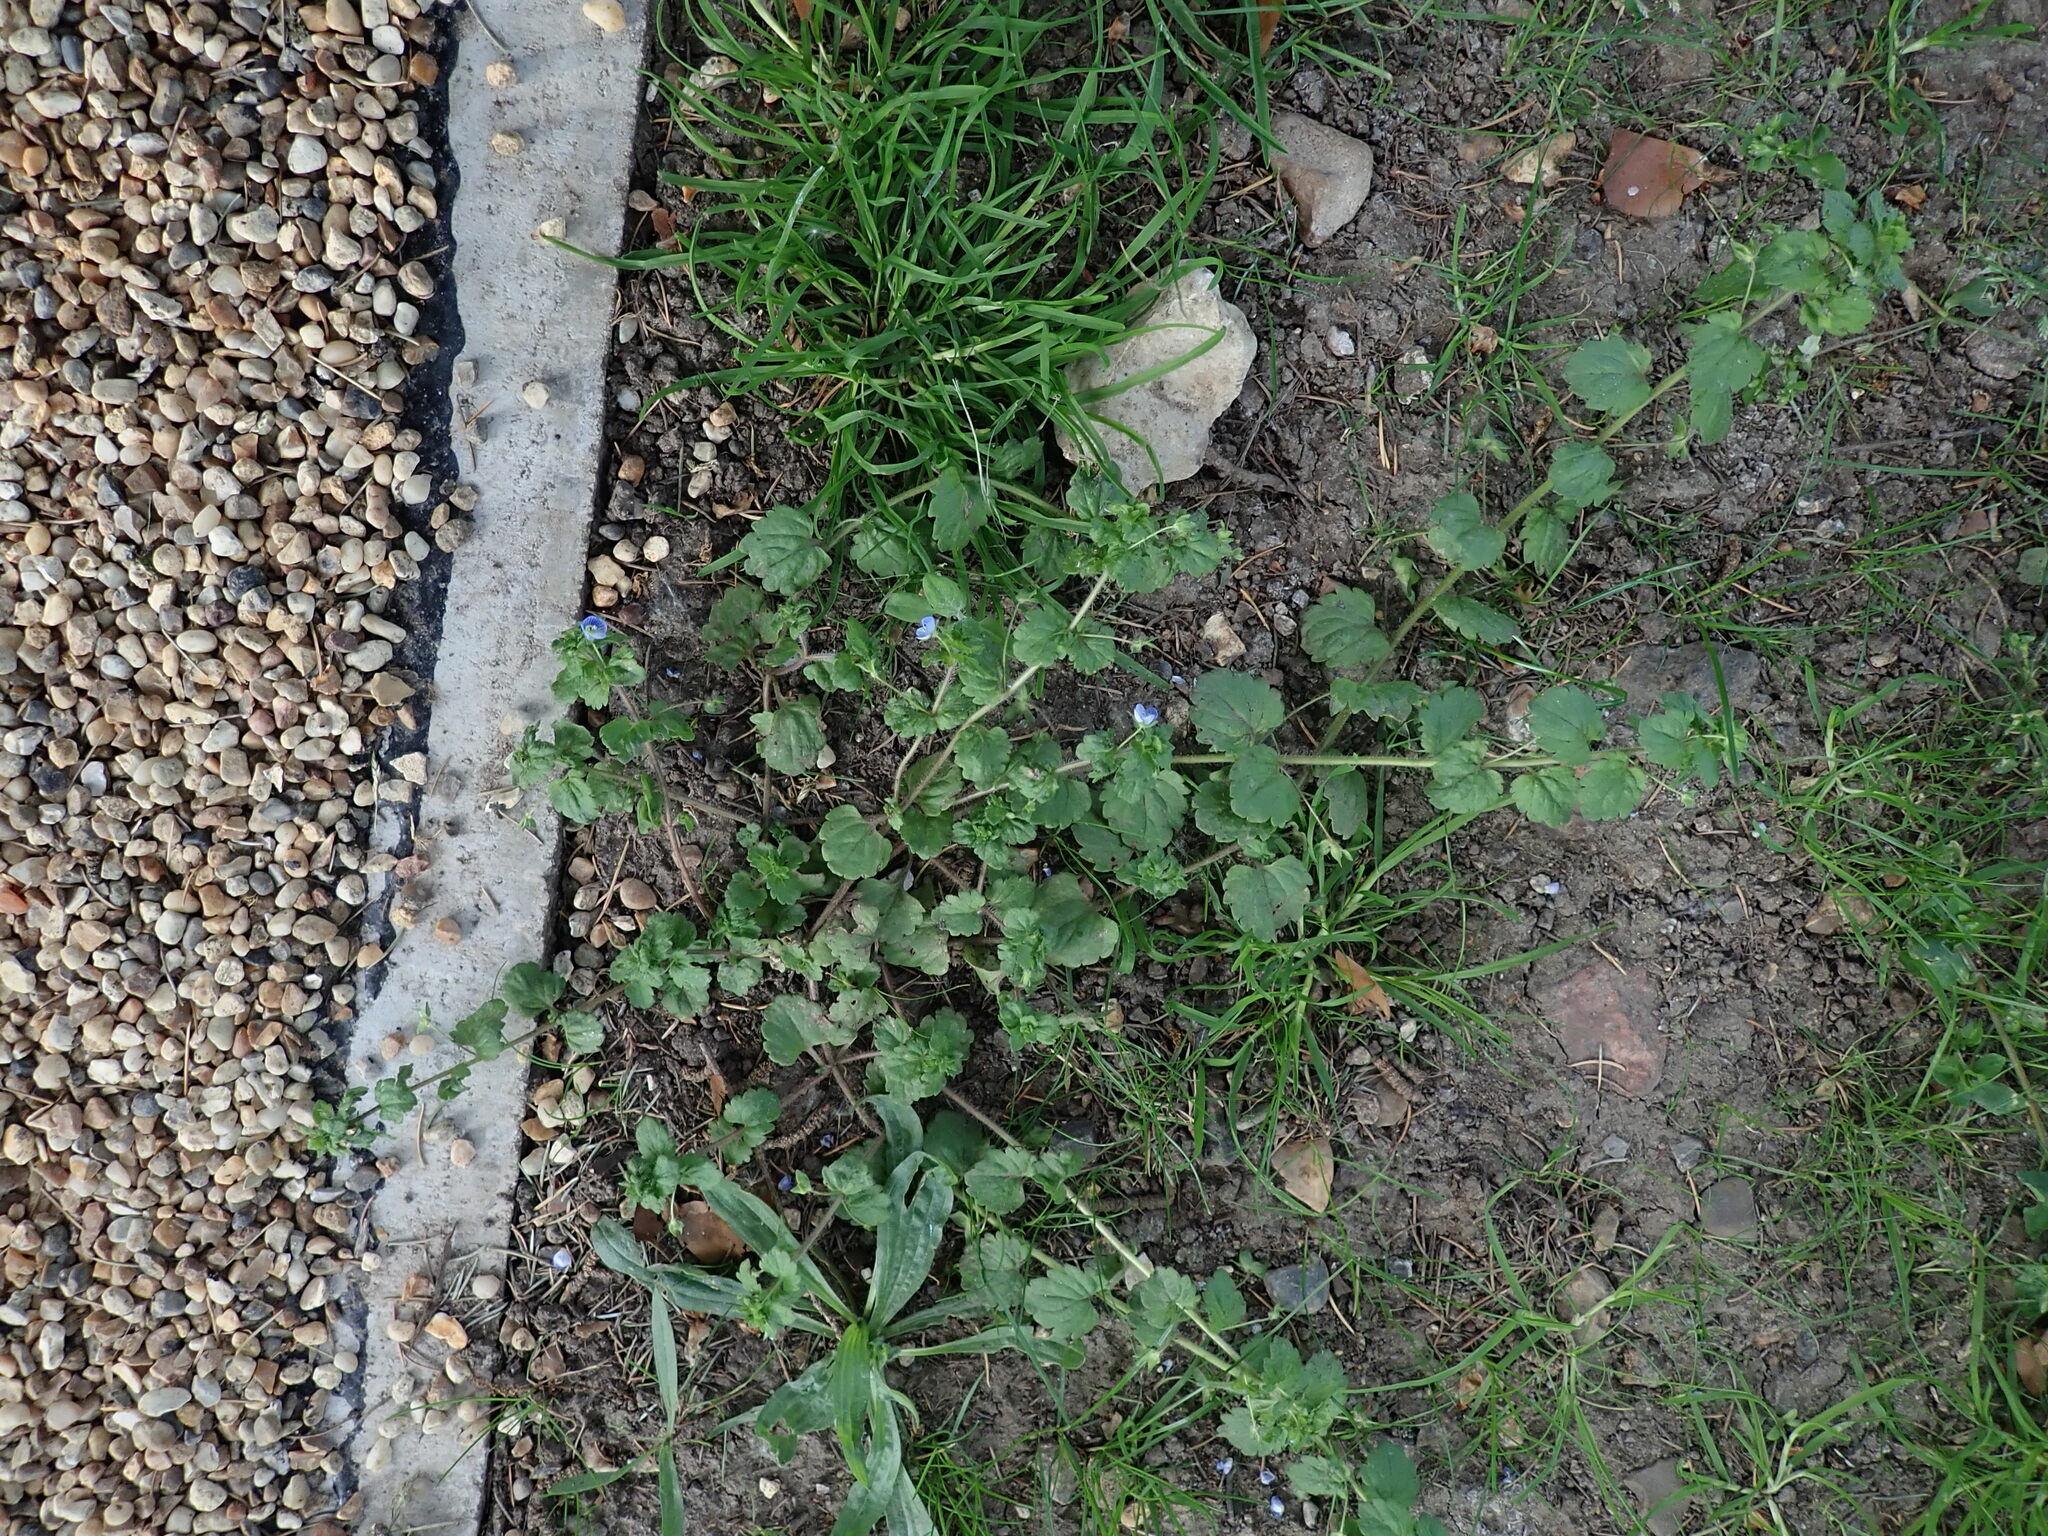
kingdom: Plantae
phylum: Tracheophyta
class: Magnoliopsida
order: Lamiales
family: Plantaginaceae
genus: Veronica
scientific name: Veronica persica
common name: Common field-speedwell
